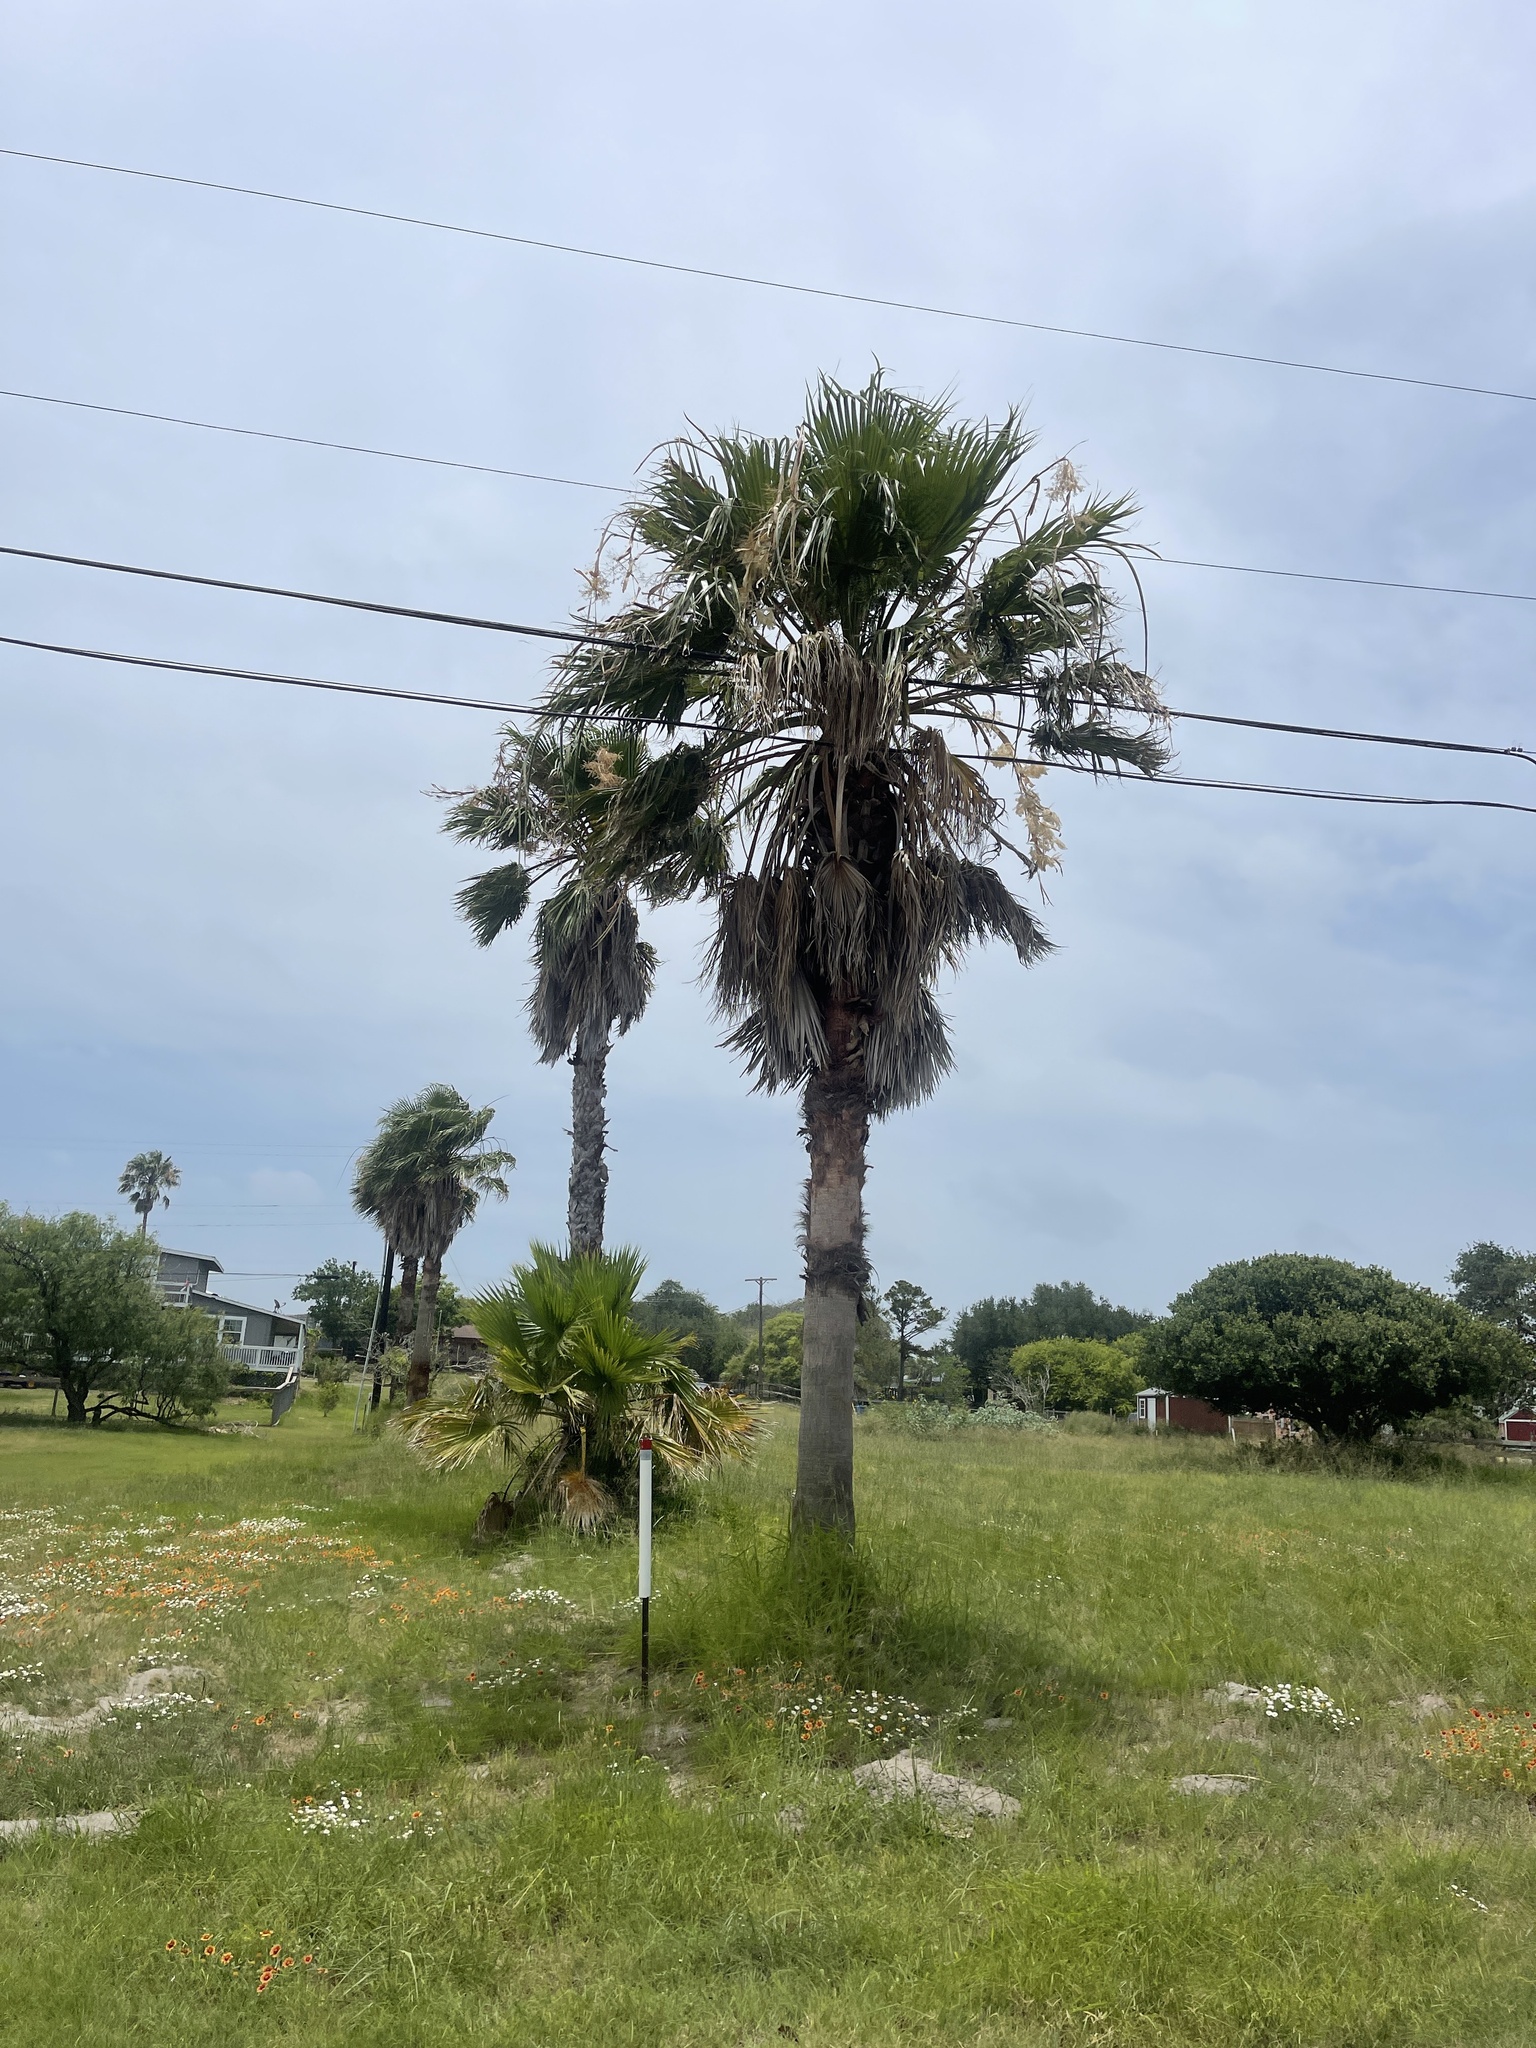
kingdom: Plantae
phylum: Tracheophyta
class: Liliopsida
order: Arecales
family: Arecaceae
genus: Washingtonia
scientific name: Washingtonia robusta
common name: Mexican fan palm
